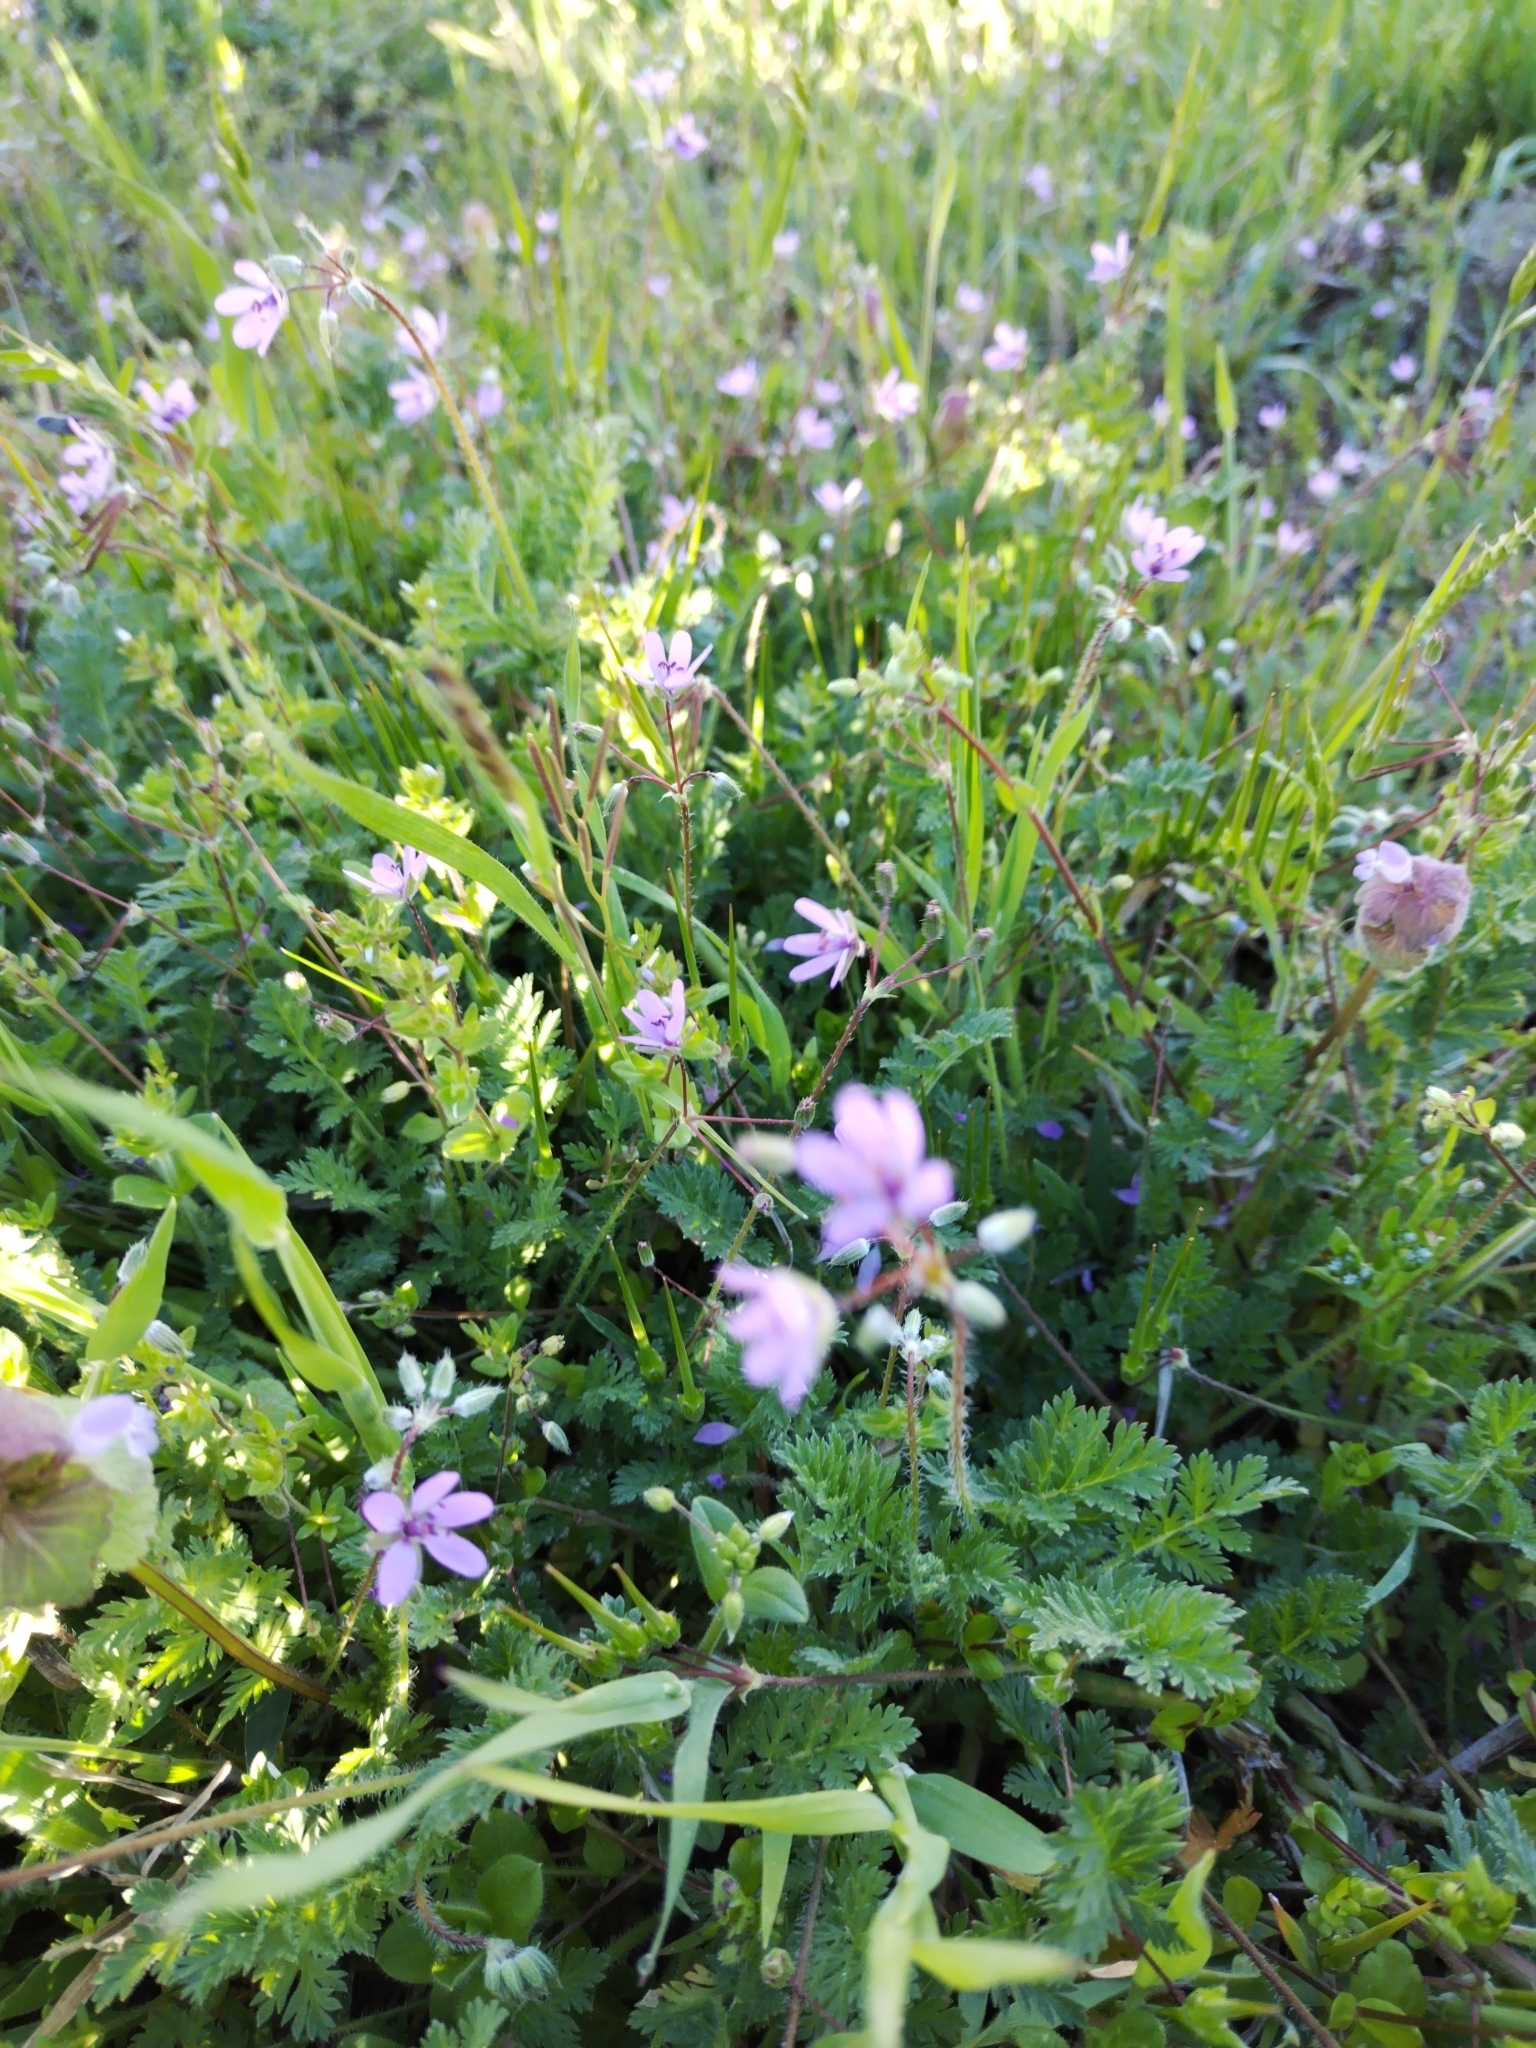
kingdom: Plantae
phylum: Tracheophyta
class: Magnoliopsida
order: Geraniales
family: Geraniaceae
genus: Erodium
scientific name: Erodium cicutarium
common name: Common stork's-bill
